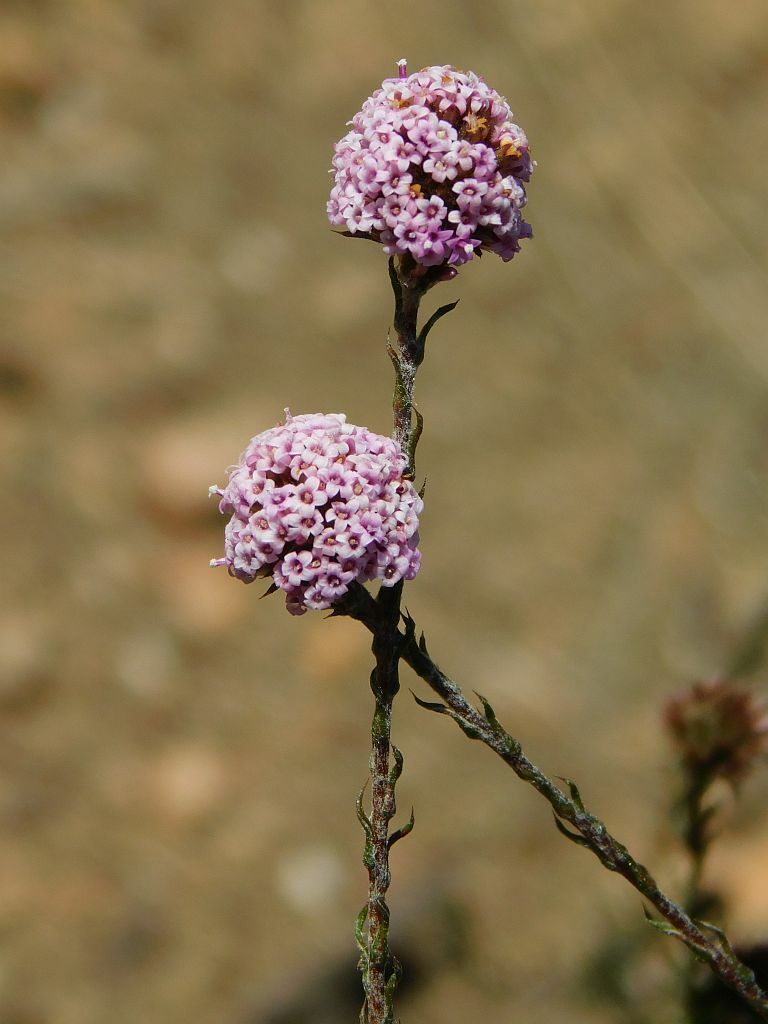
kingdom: Plantae
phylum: Tracheophyta
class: Magnoliopsida
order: Asterales
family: Asteraceae
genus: Stoebe
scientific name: Stoebe capitata
